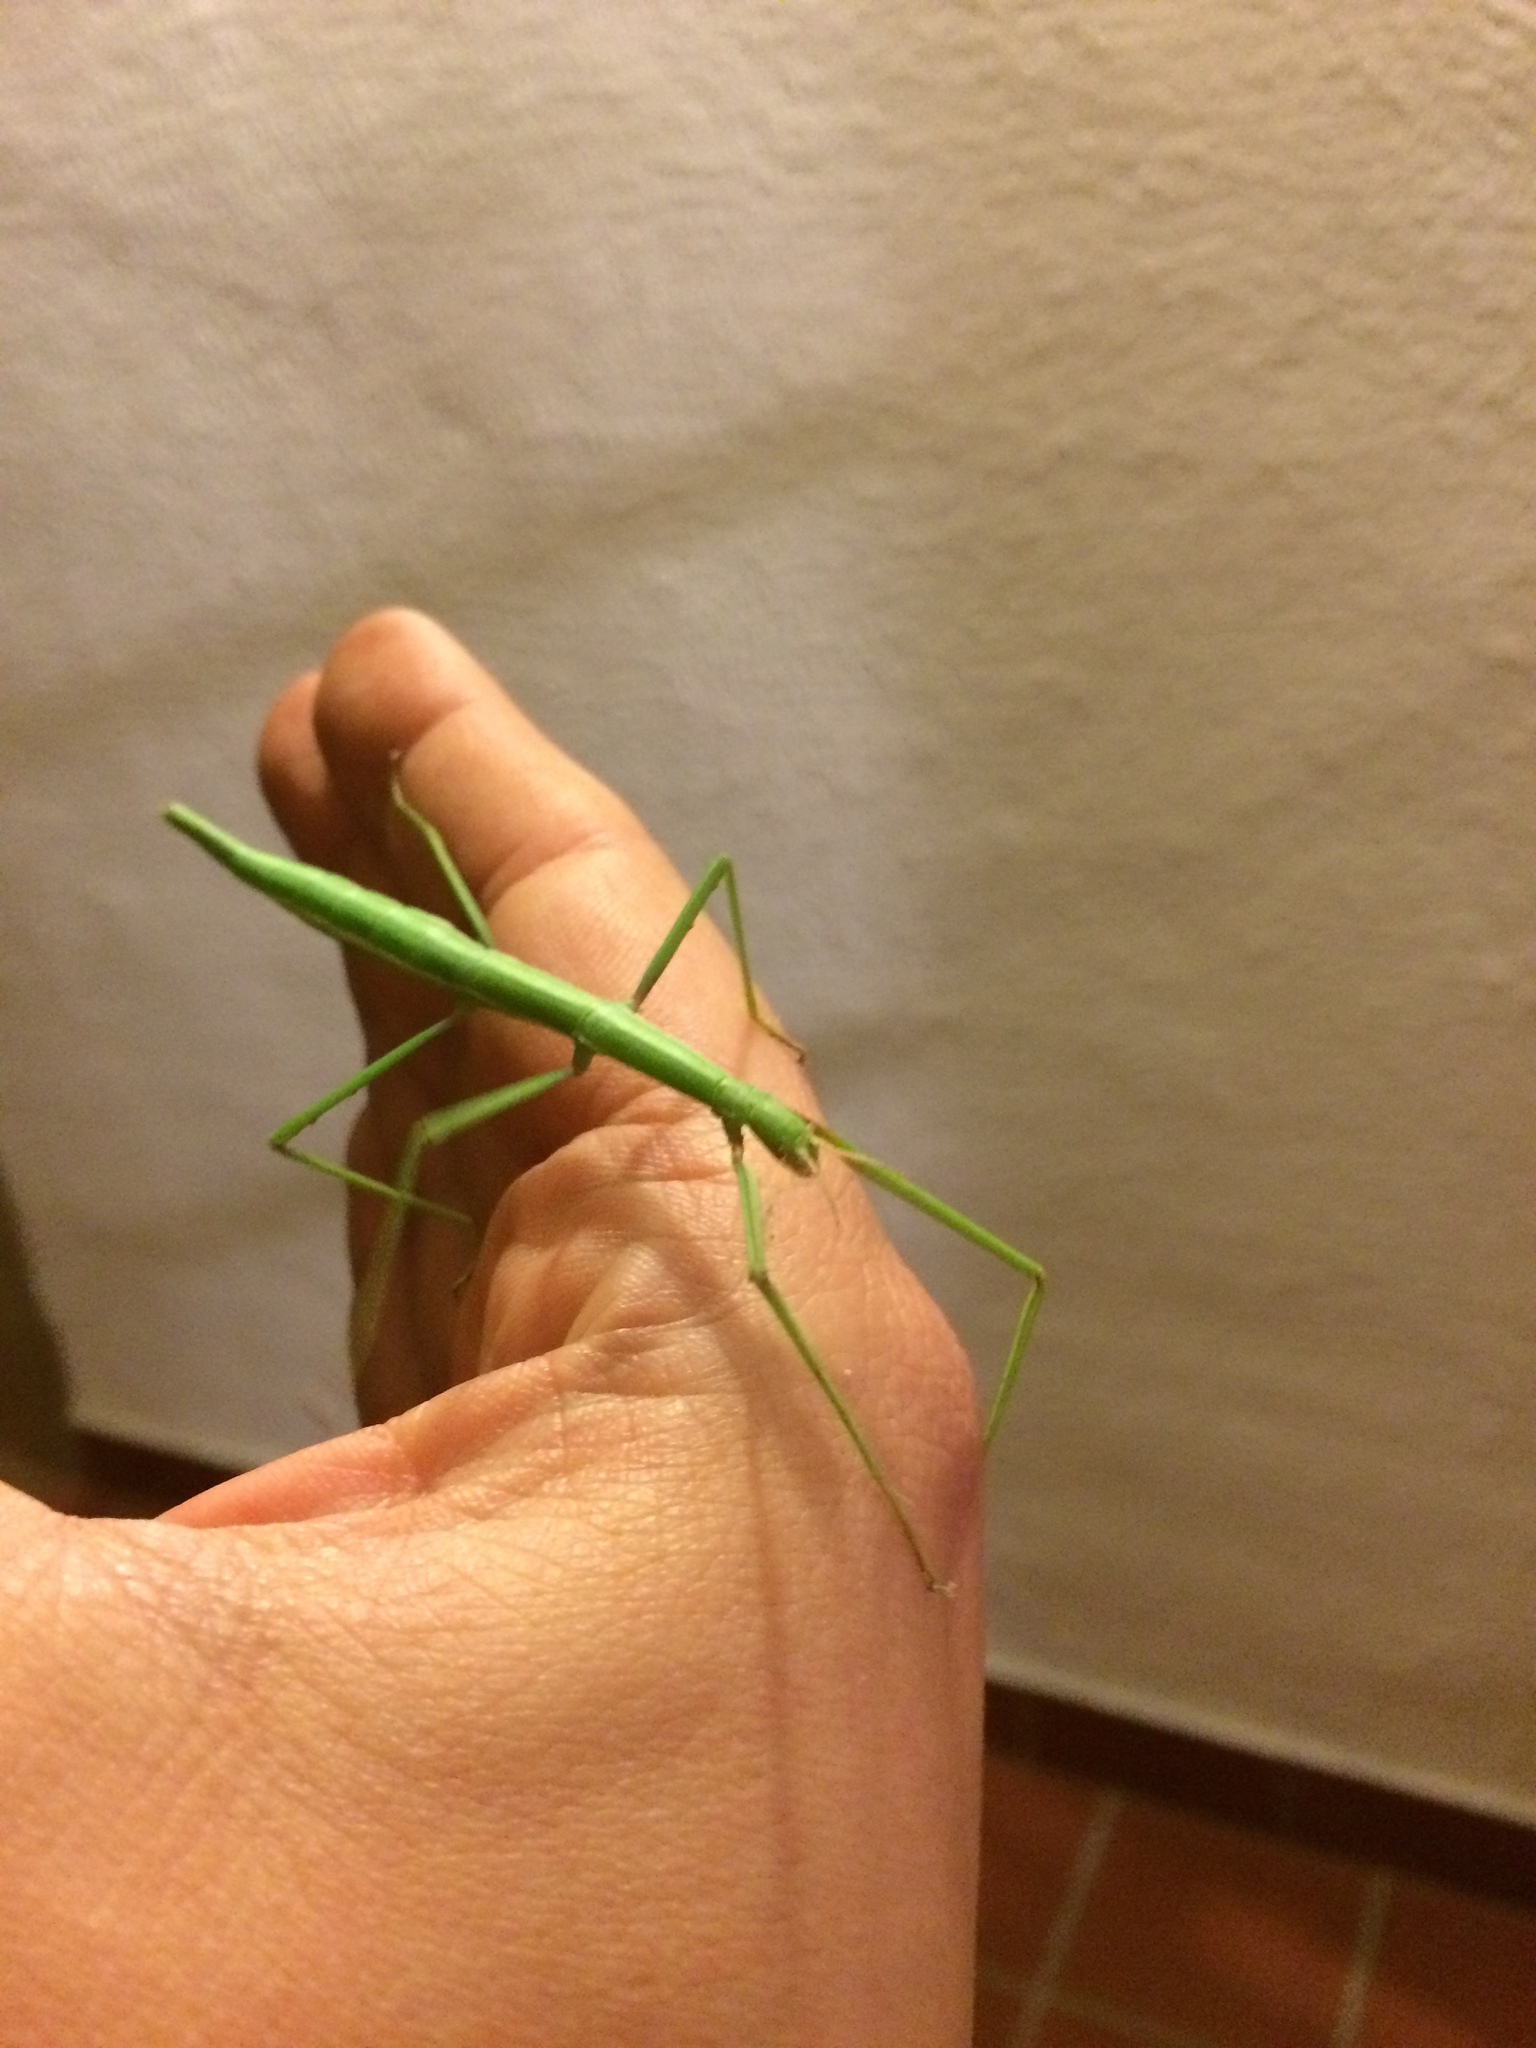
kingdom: Animalia
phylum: Arthropoda
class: Insecta
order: Phasmida
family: Bacillidae
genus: Bacillus
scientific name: Bacillus rossius
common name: Corsican stick-insect
